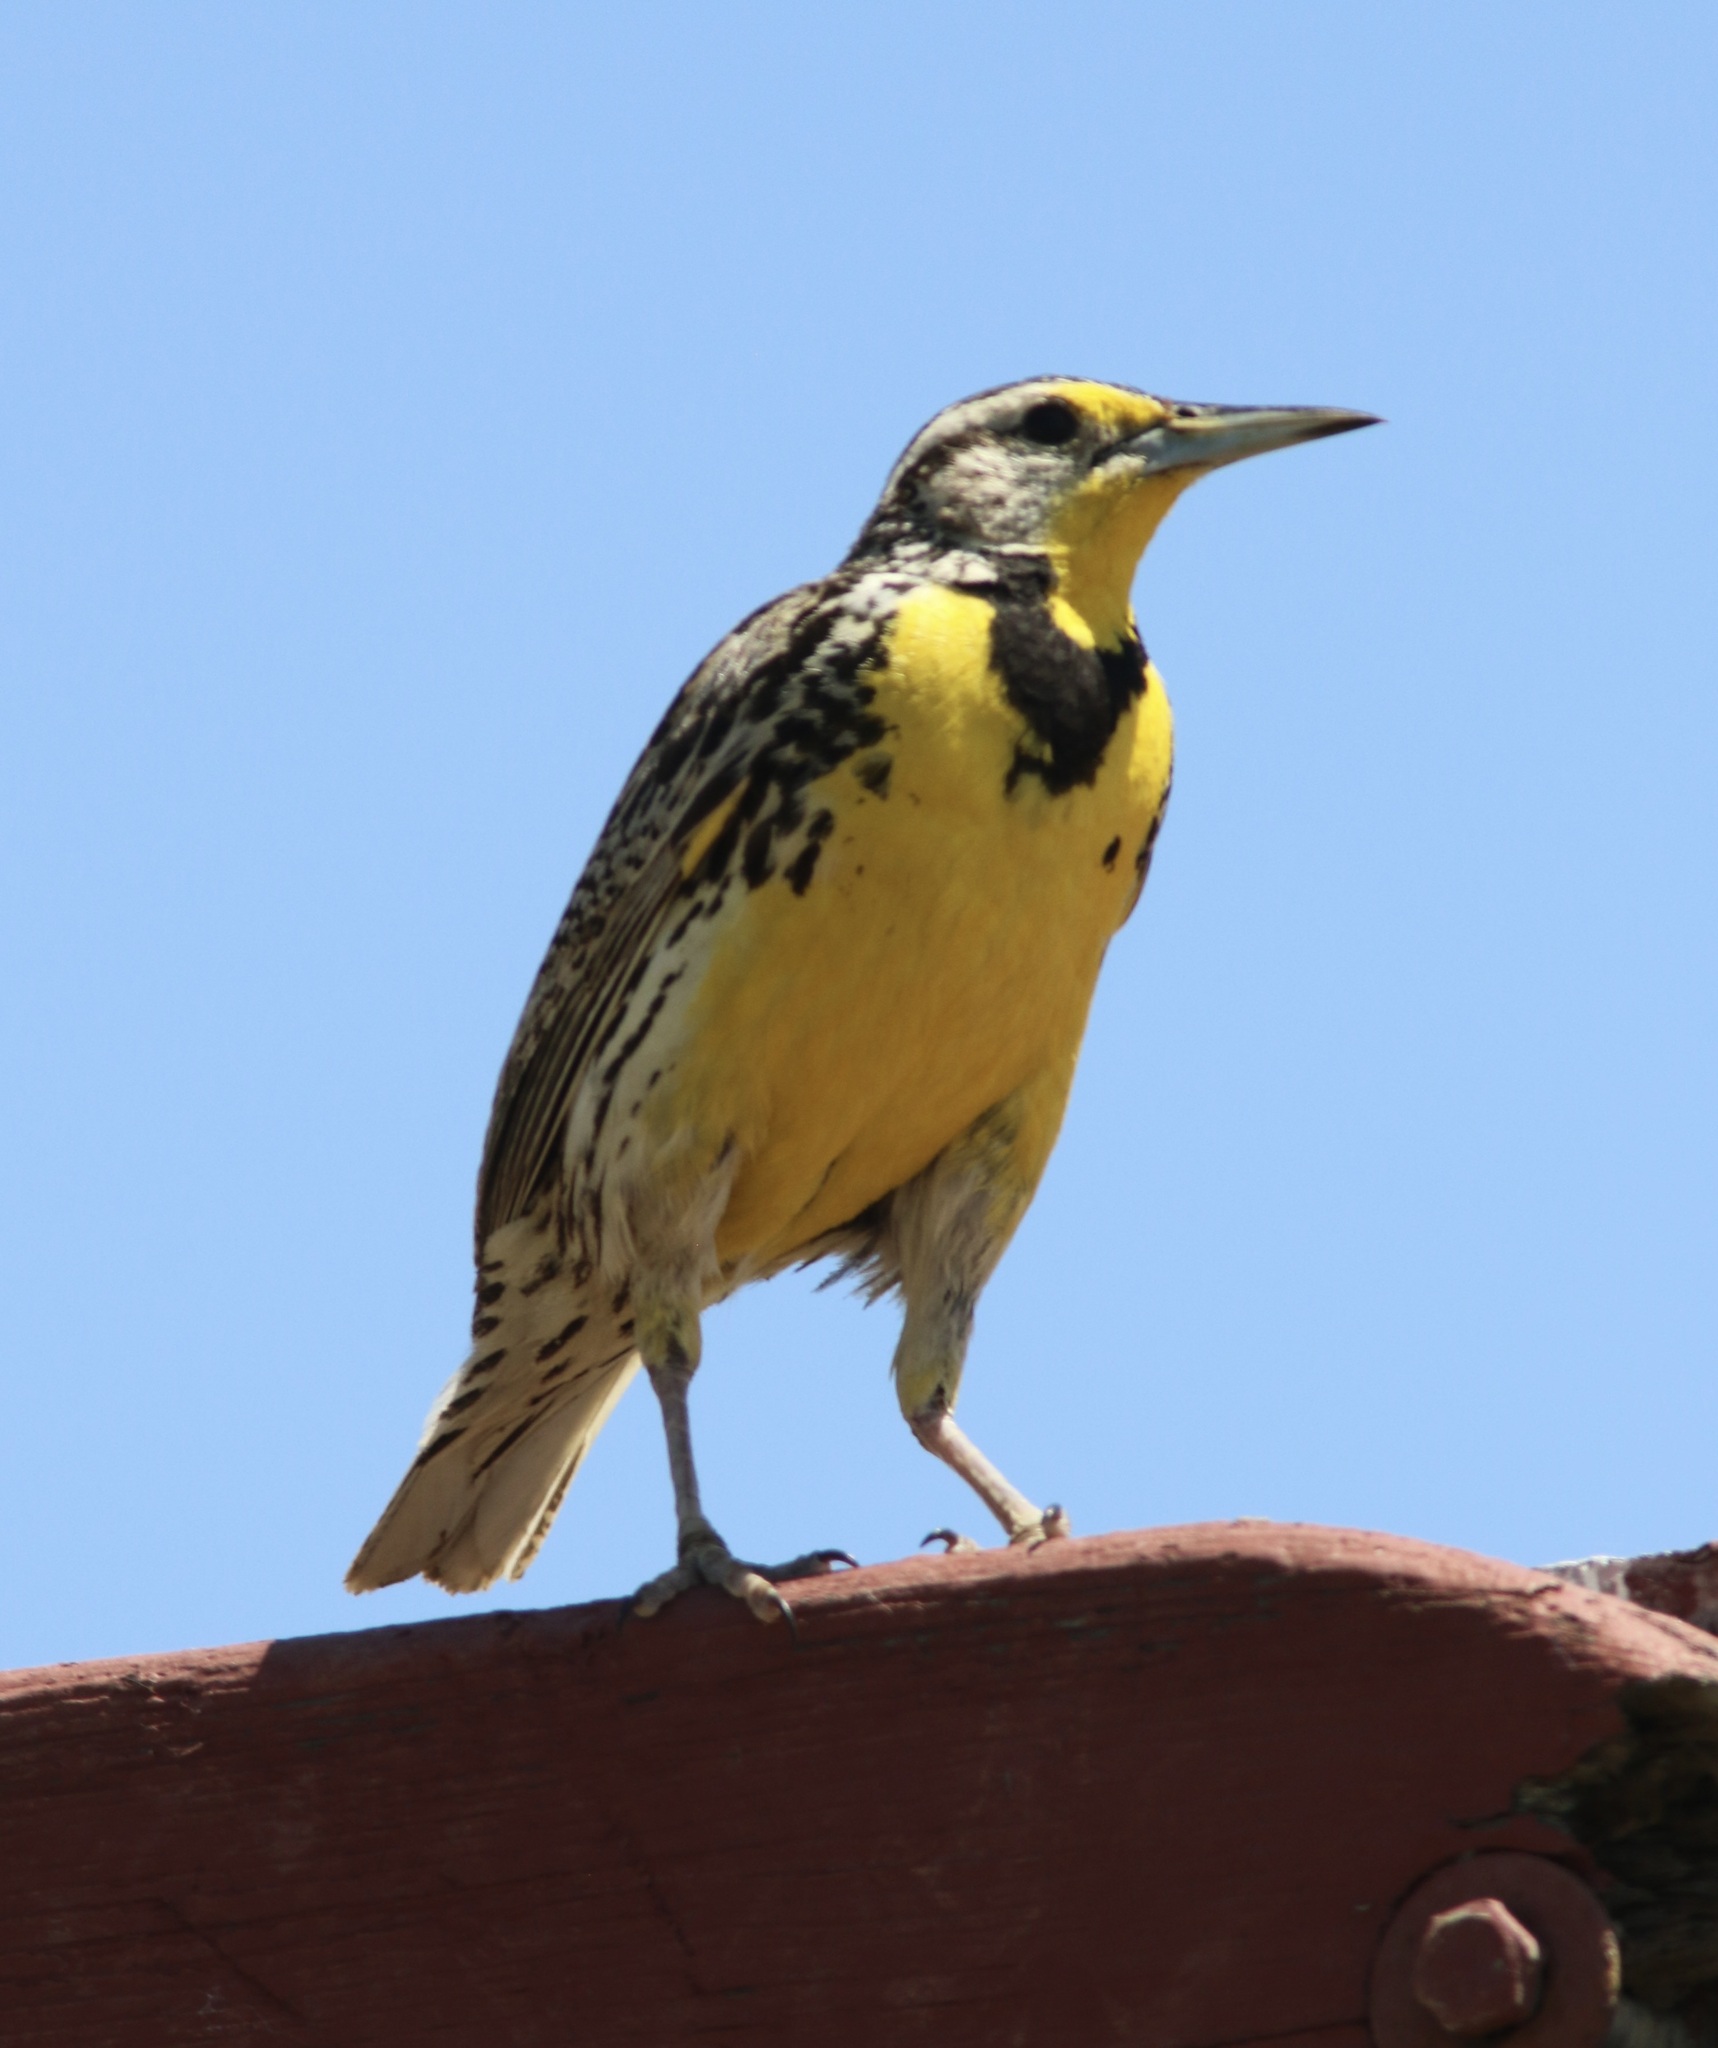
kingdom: Animalia
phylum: Chordata
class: Aves
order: Passeriformes
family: Icteridae
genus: Sturnella
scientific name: Sturnella neglecta
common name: Western meadowlark
